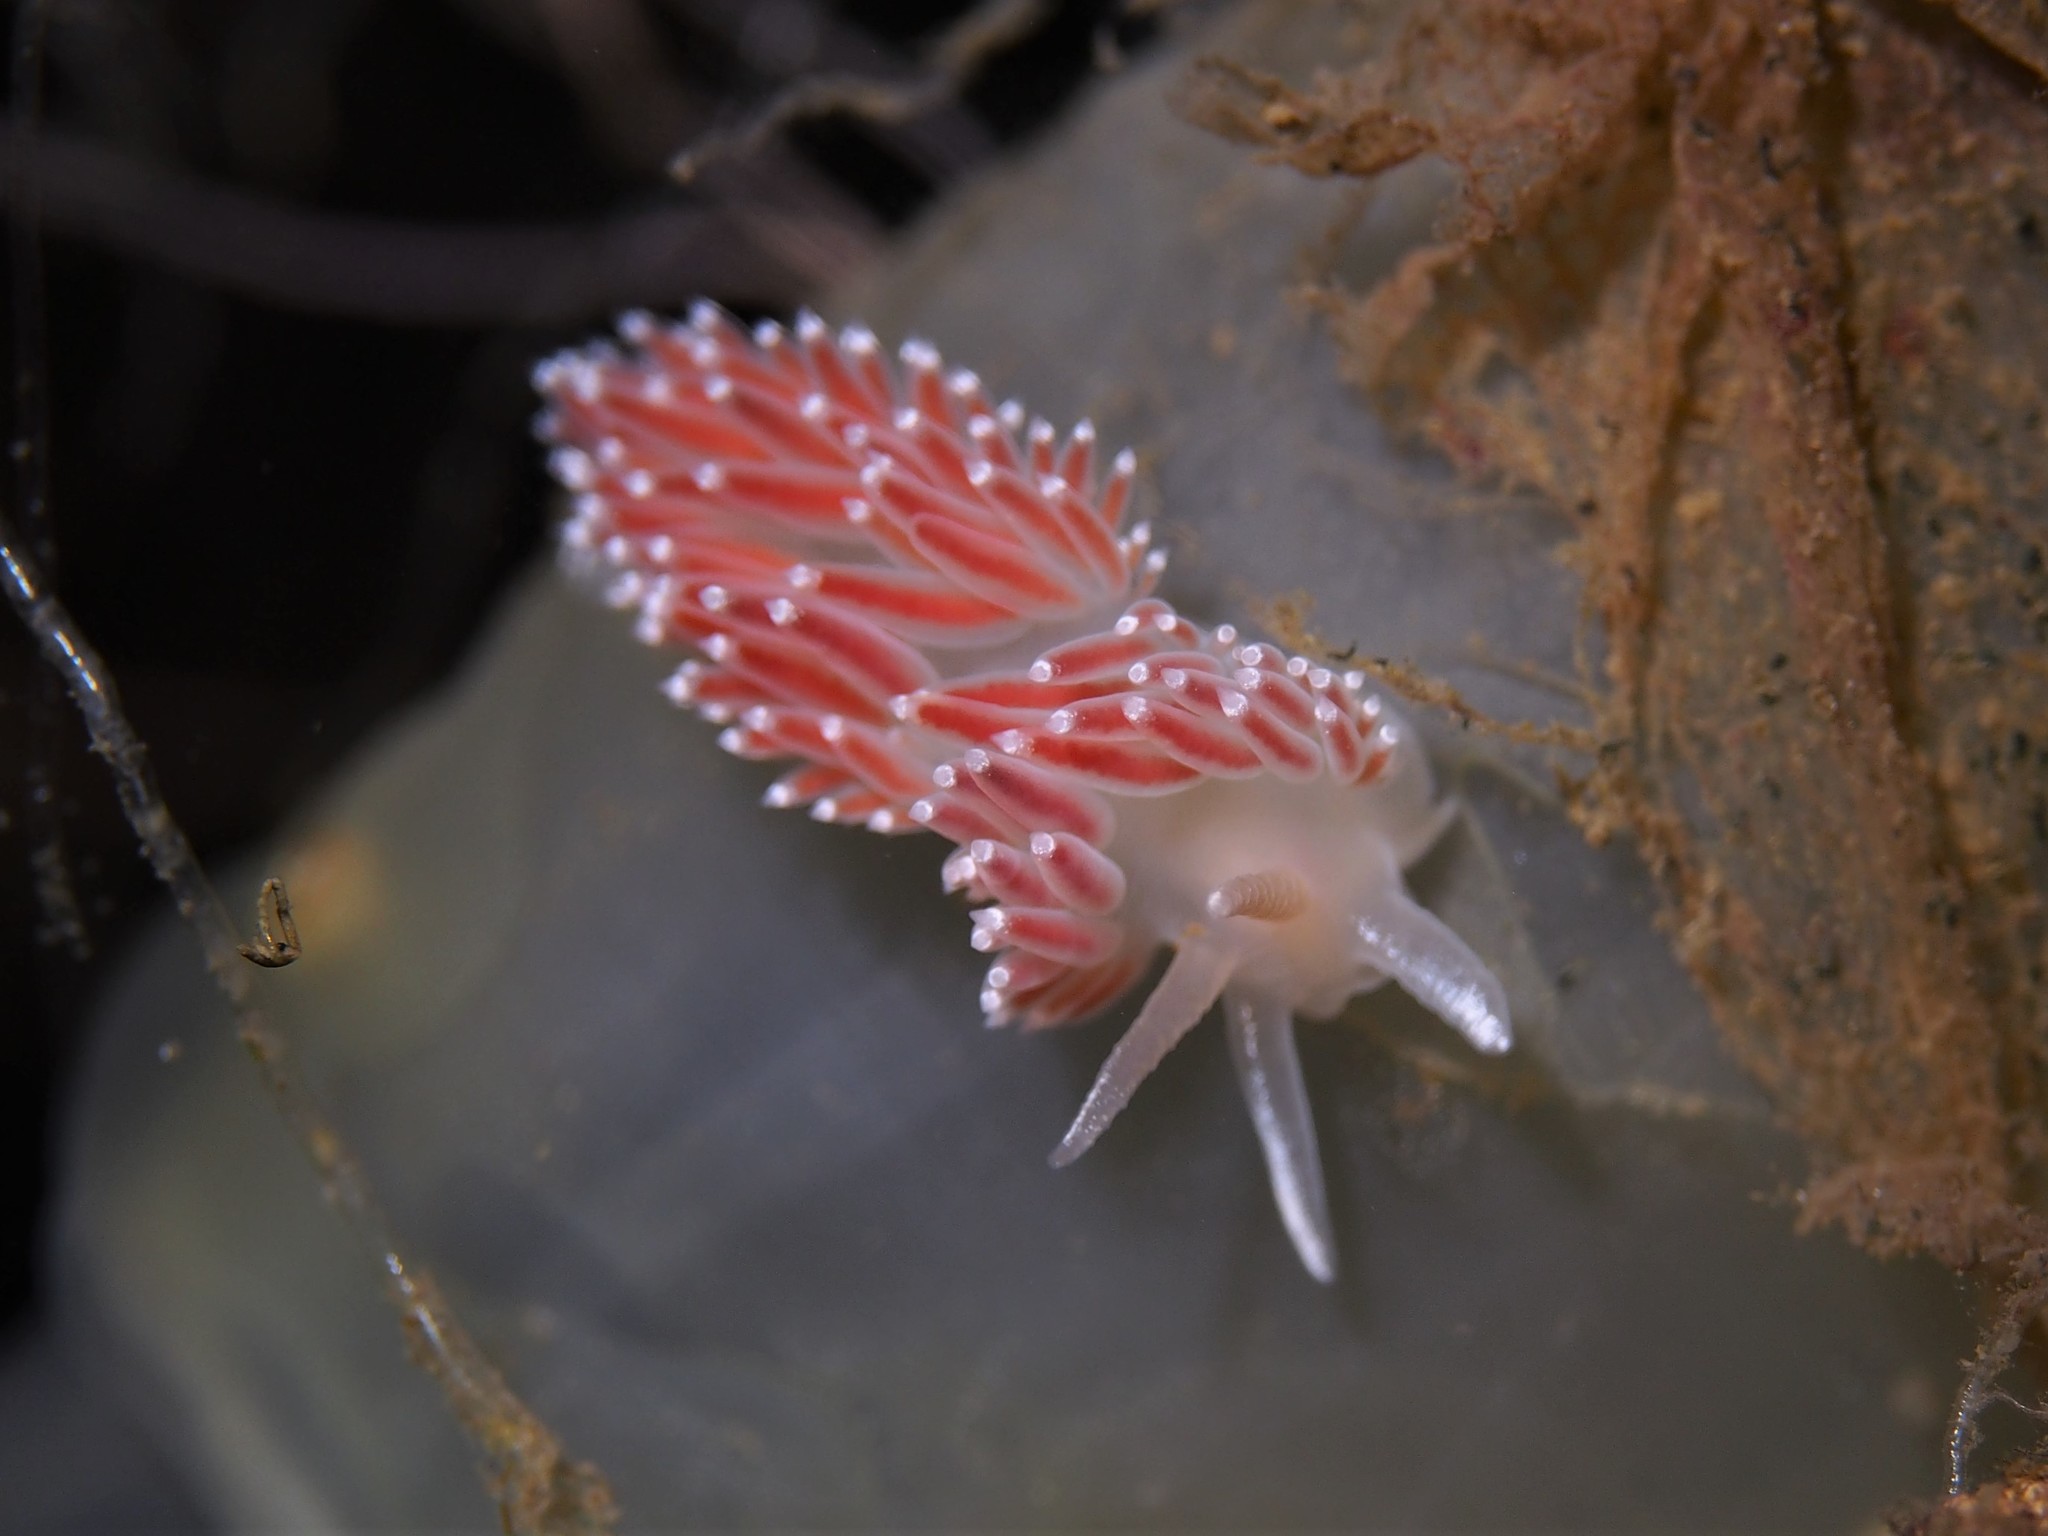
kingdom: Animalia
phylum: Mollusca
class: Gastropoda
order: Nudibranchia
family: Coryphellidae
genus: Coryphella
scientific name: Coryphella verrucosa
